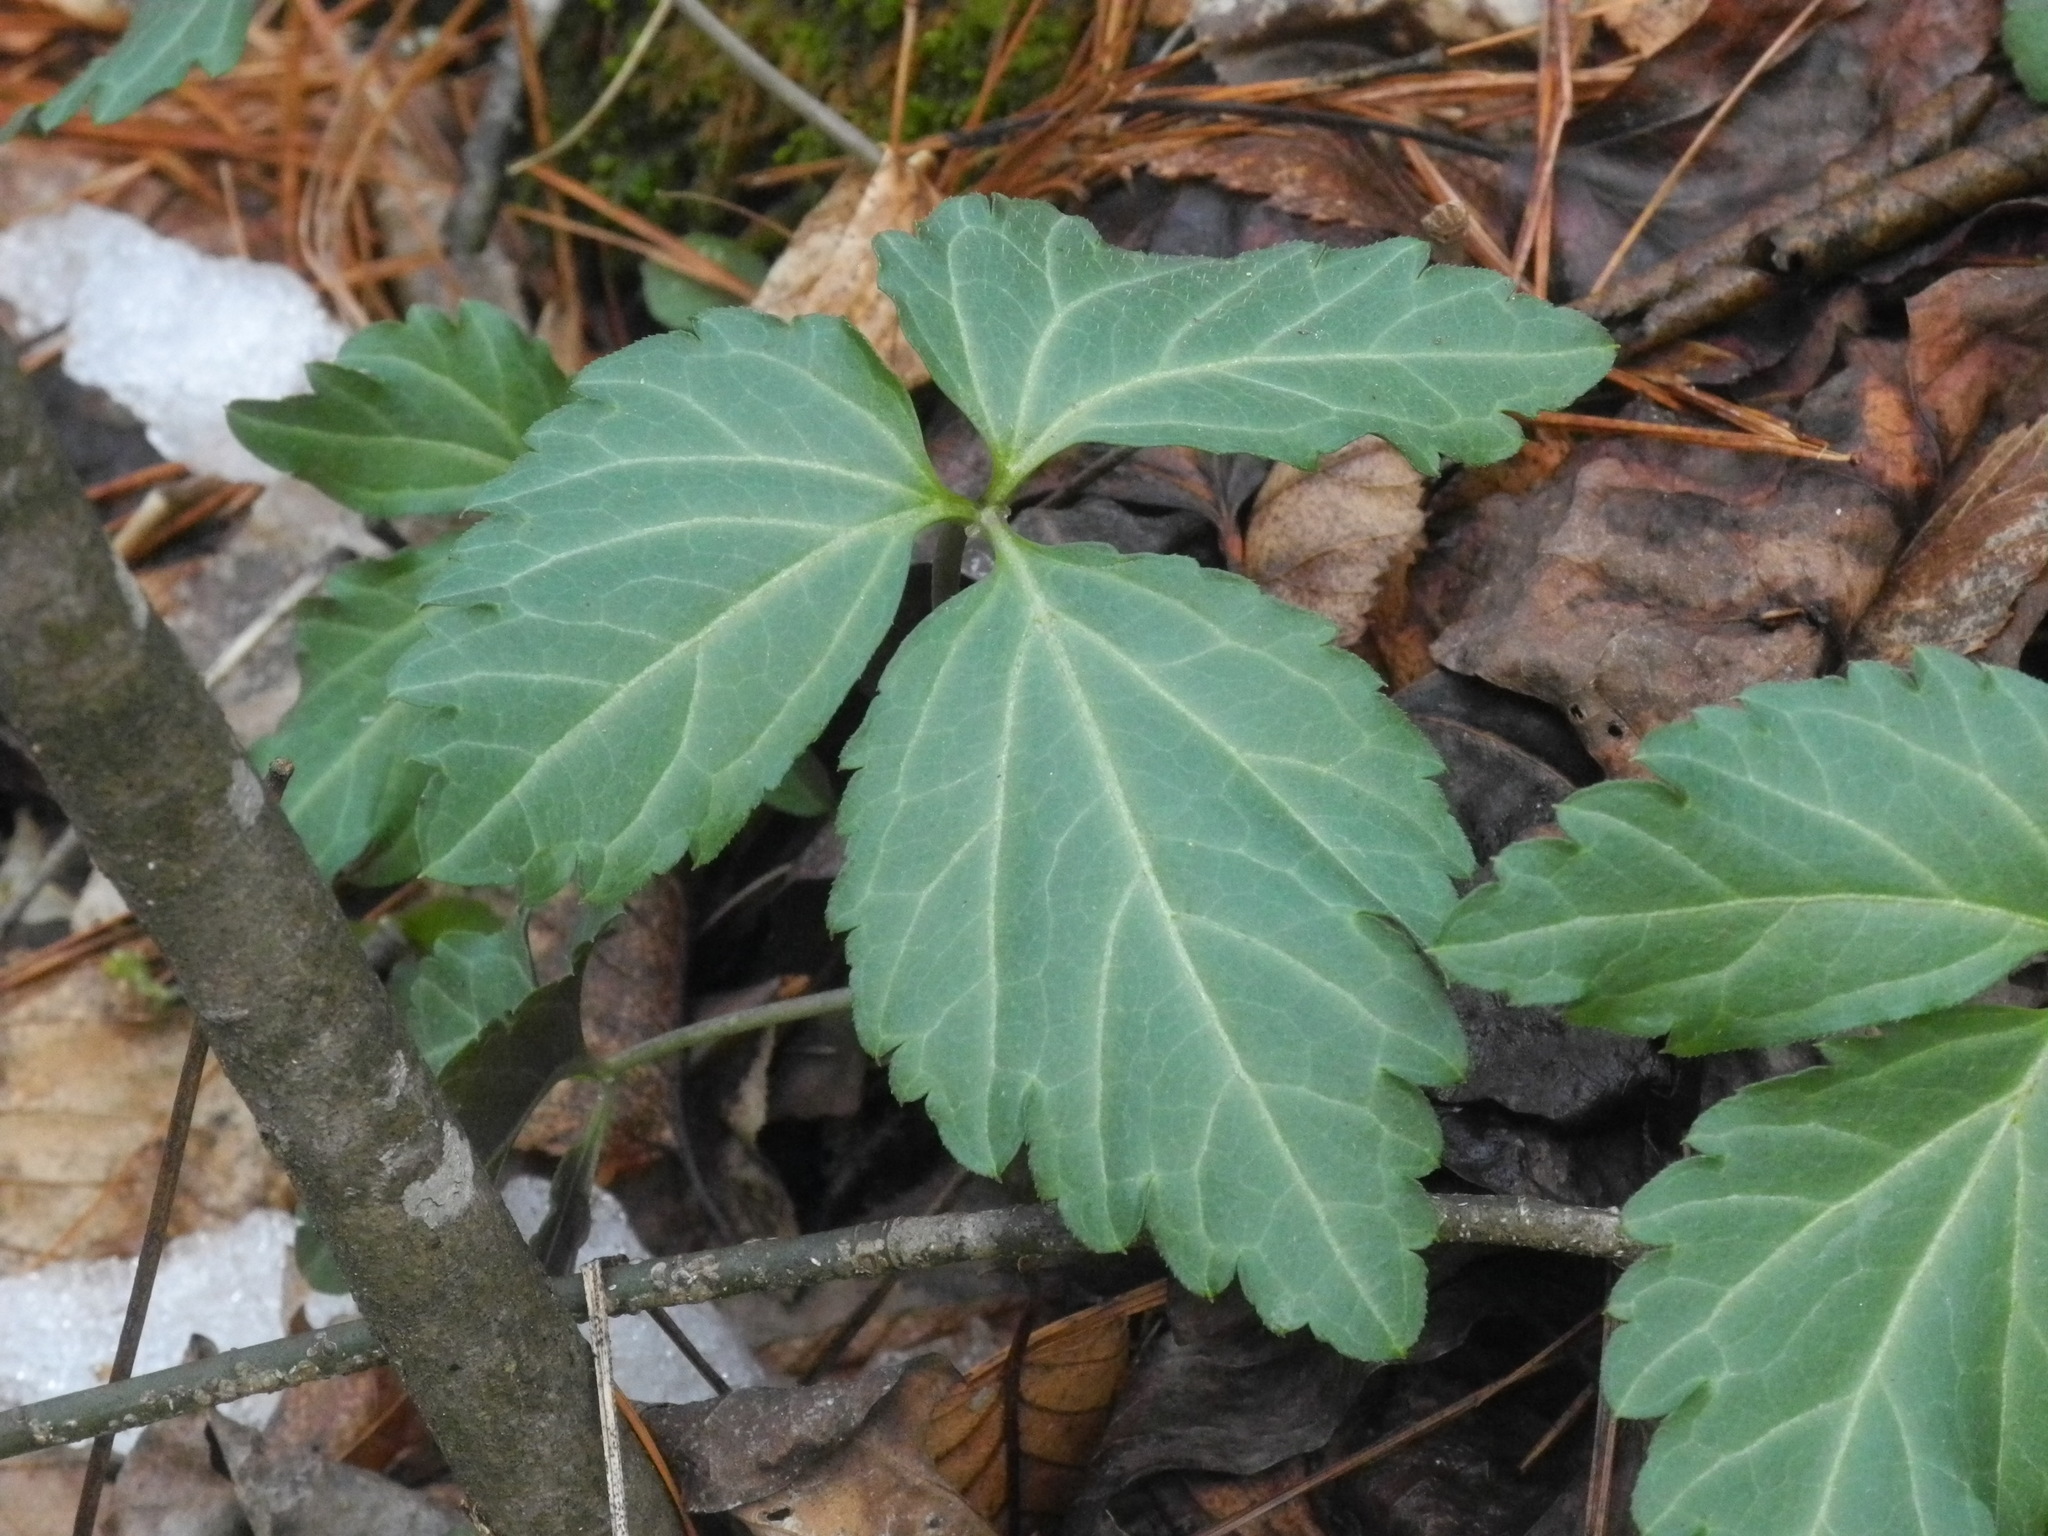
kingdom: Plantae
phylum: Tracheophyta
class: Magnoliopsida
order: Brassicales
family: Brassicaceae
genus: Cardamine
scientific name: Cardamine diphylla
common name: Broad-leaved toothwort
